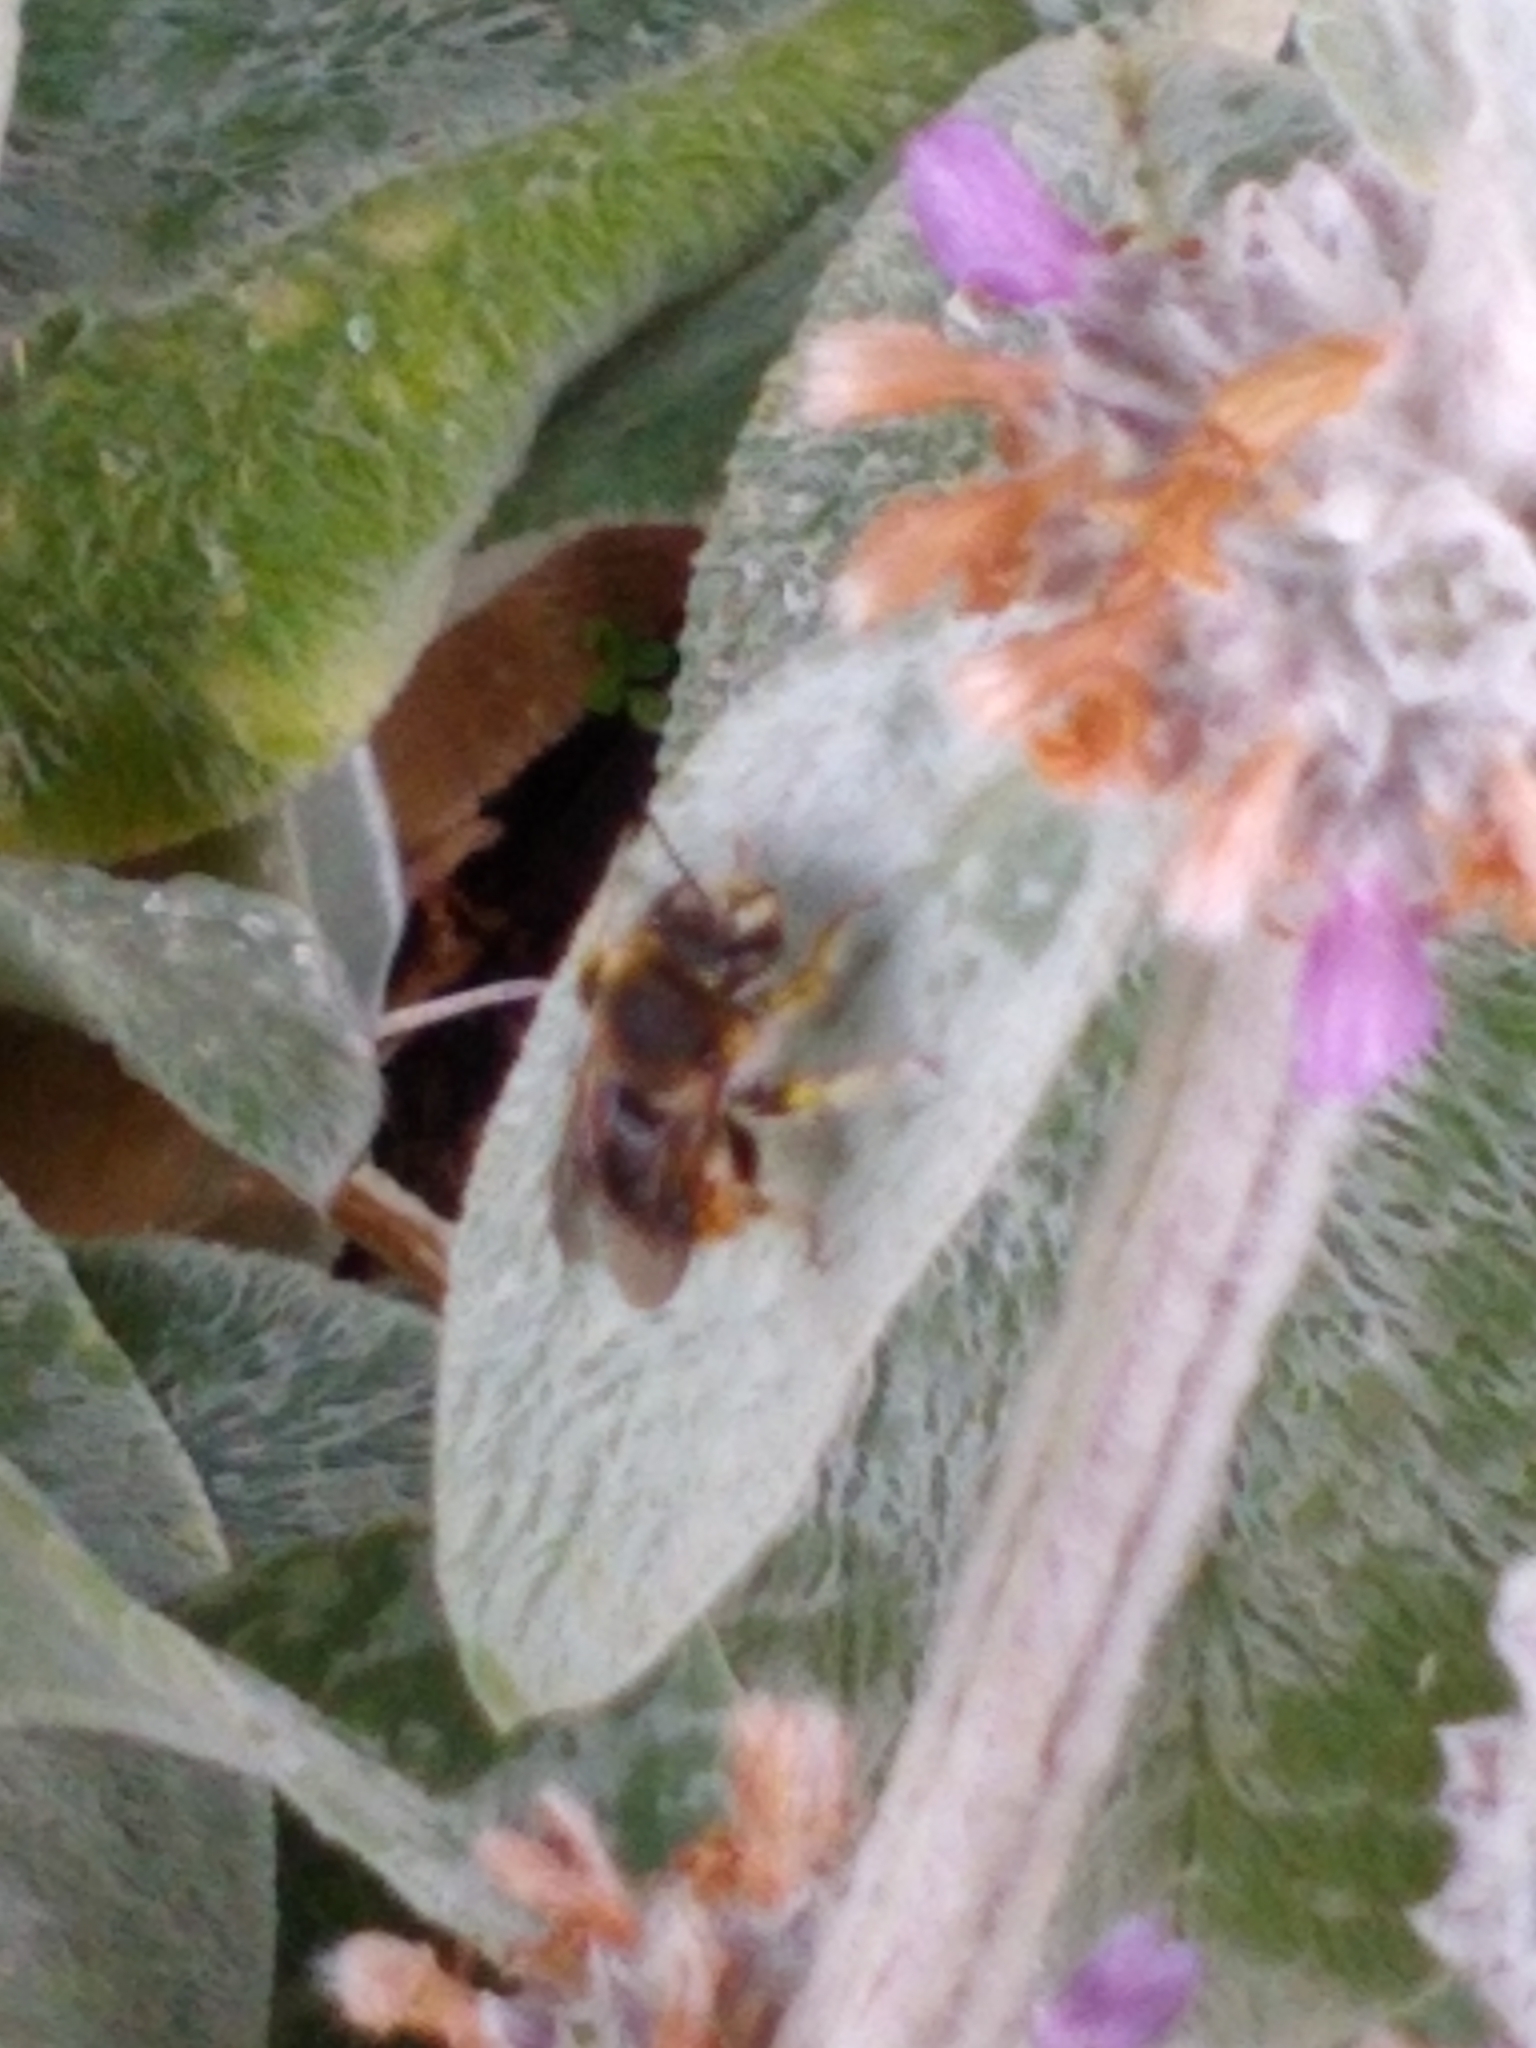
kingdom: Animalia
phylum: Arthropoda
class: Insecta
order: Hymenoptera
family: Megachilidae
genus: Anthidium
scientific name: Anthidium manicatum
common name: Wool carder bee
